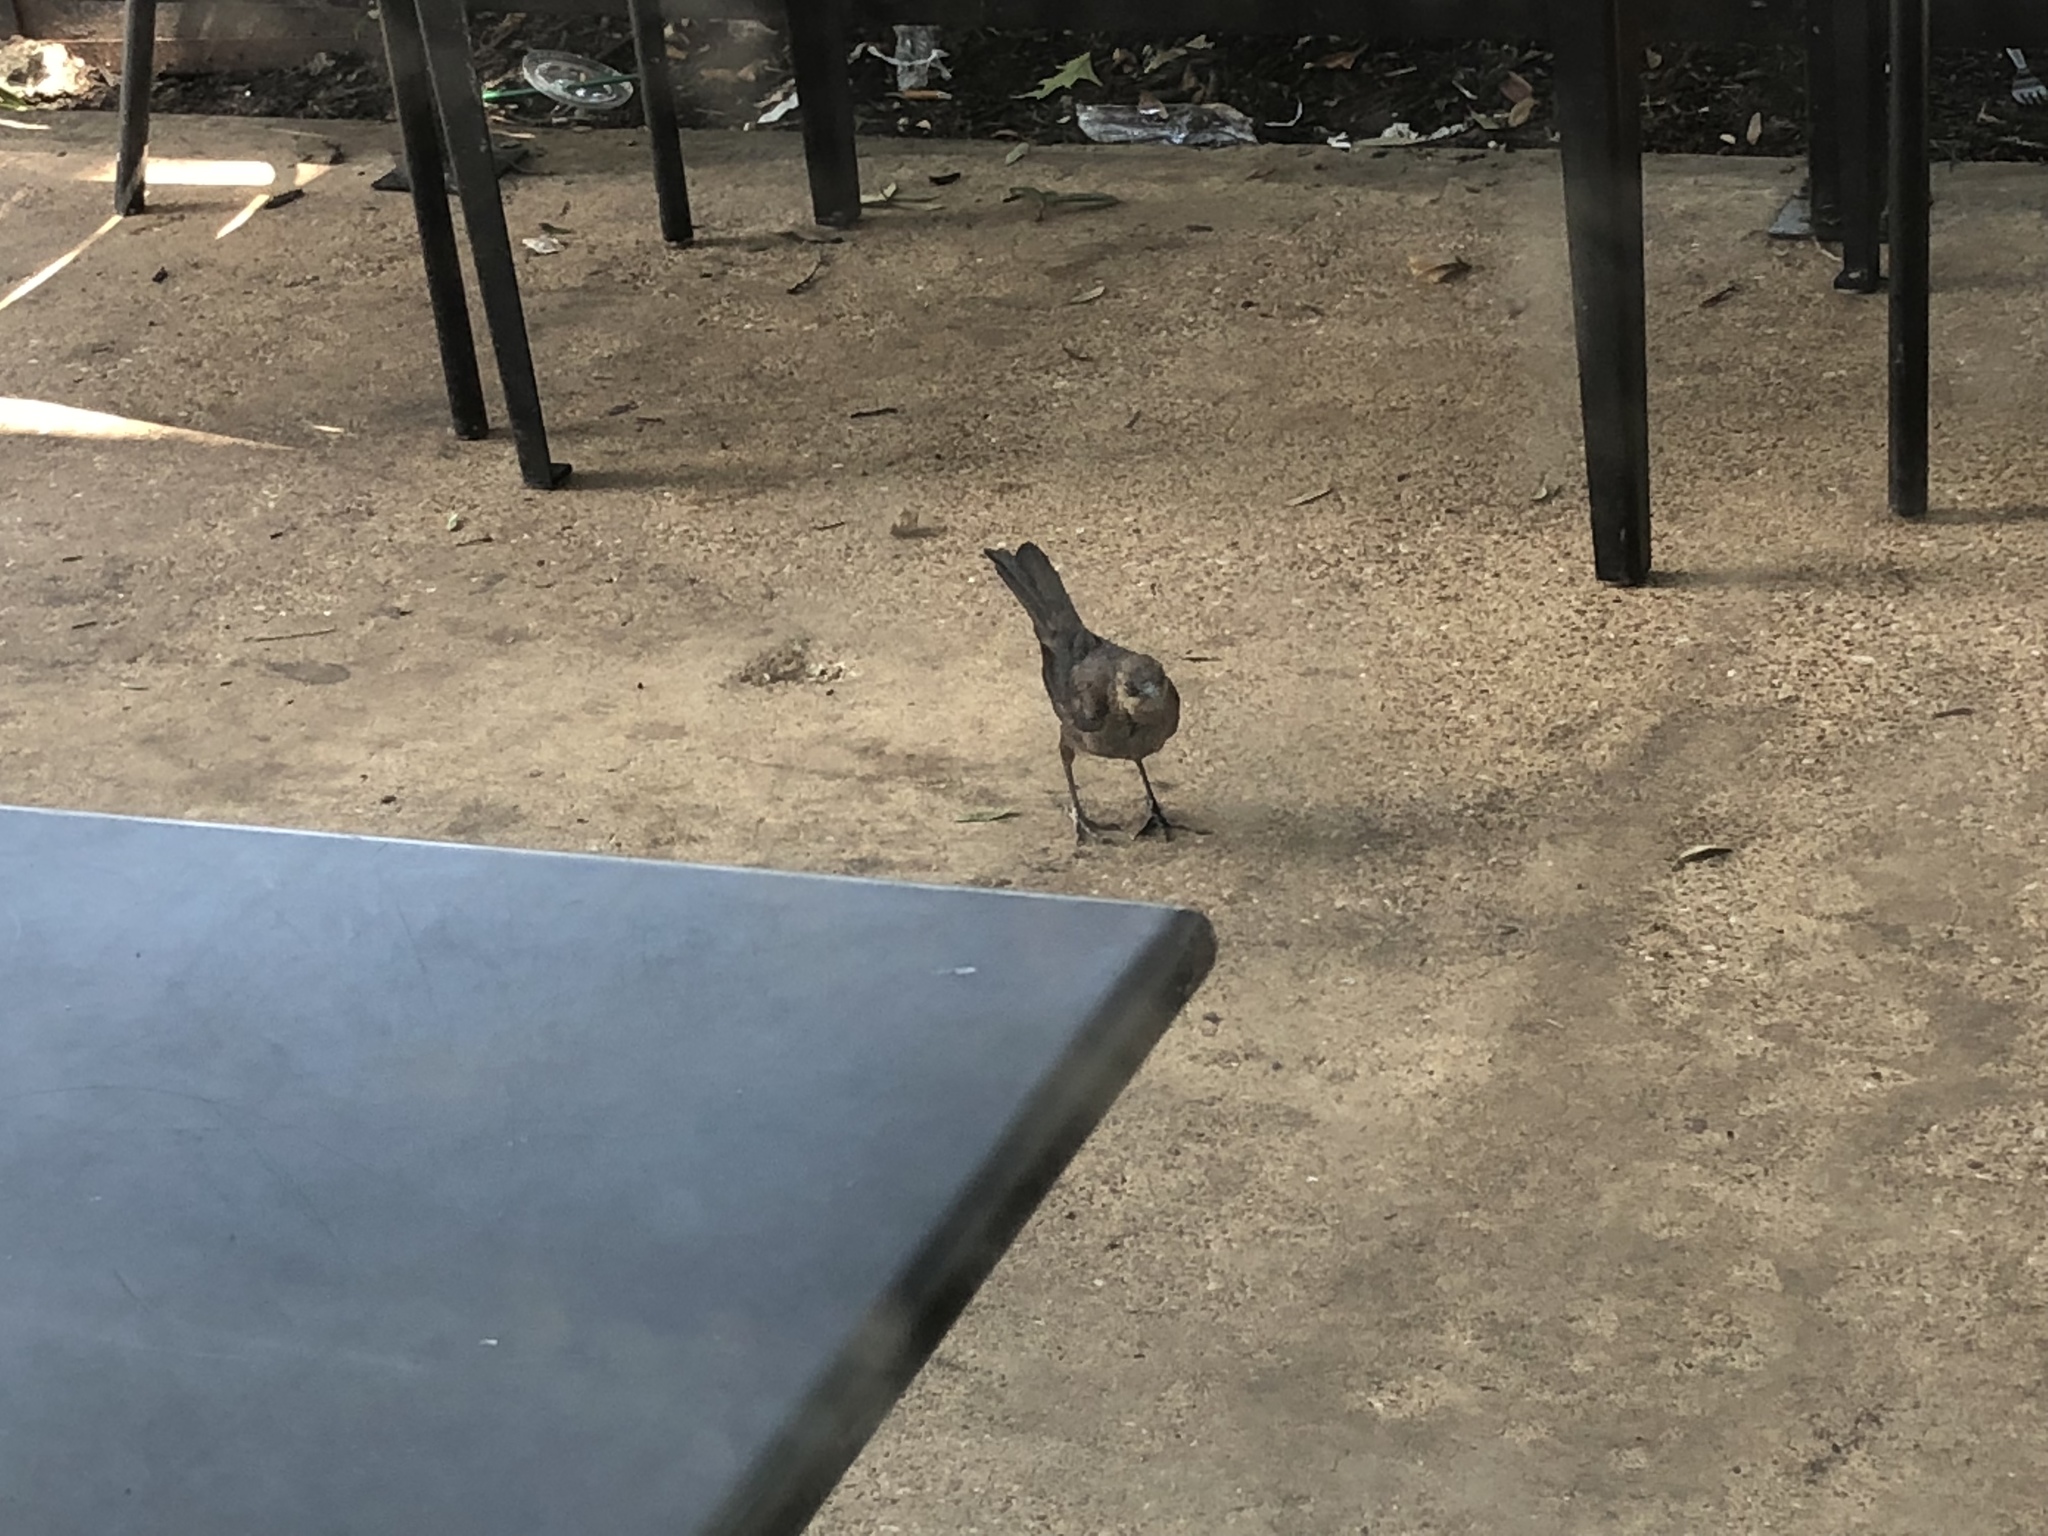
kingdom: Animalia
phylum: Chordata
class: Aves
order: Passeriformes
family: Icteridae
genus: Quiscalus
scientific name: Quiscalus mexicanus
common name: Great-tailed grackle
